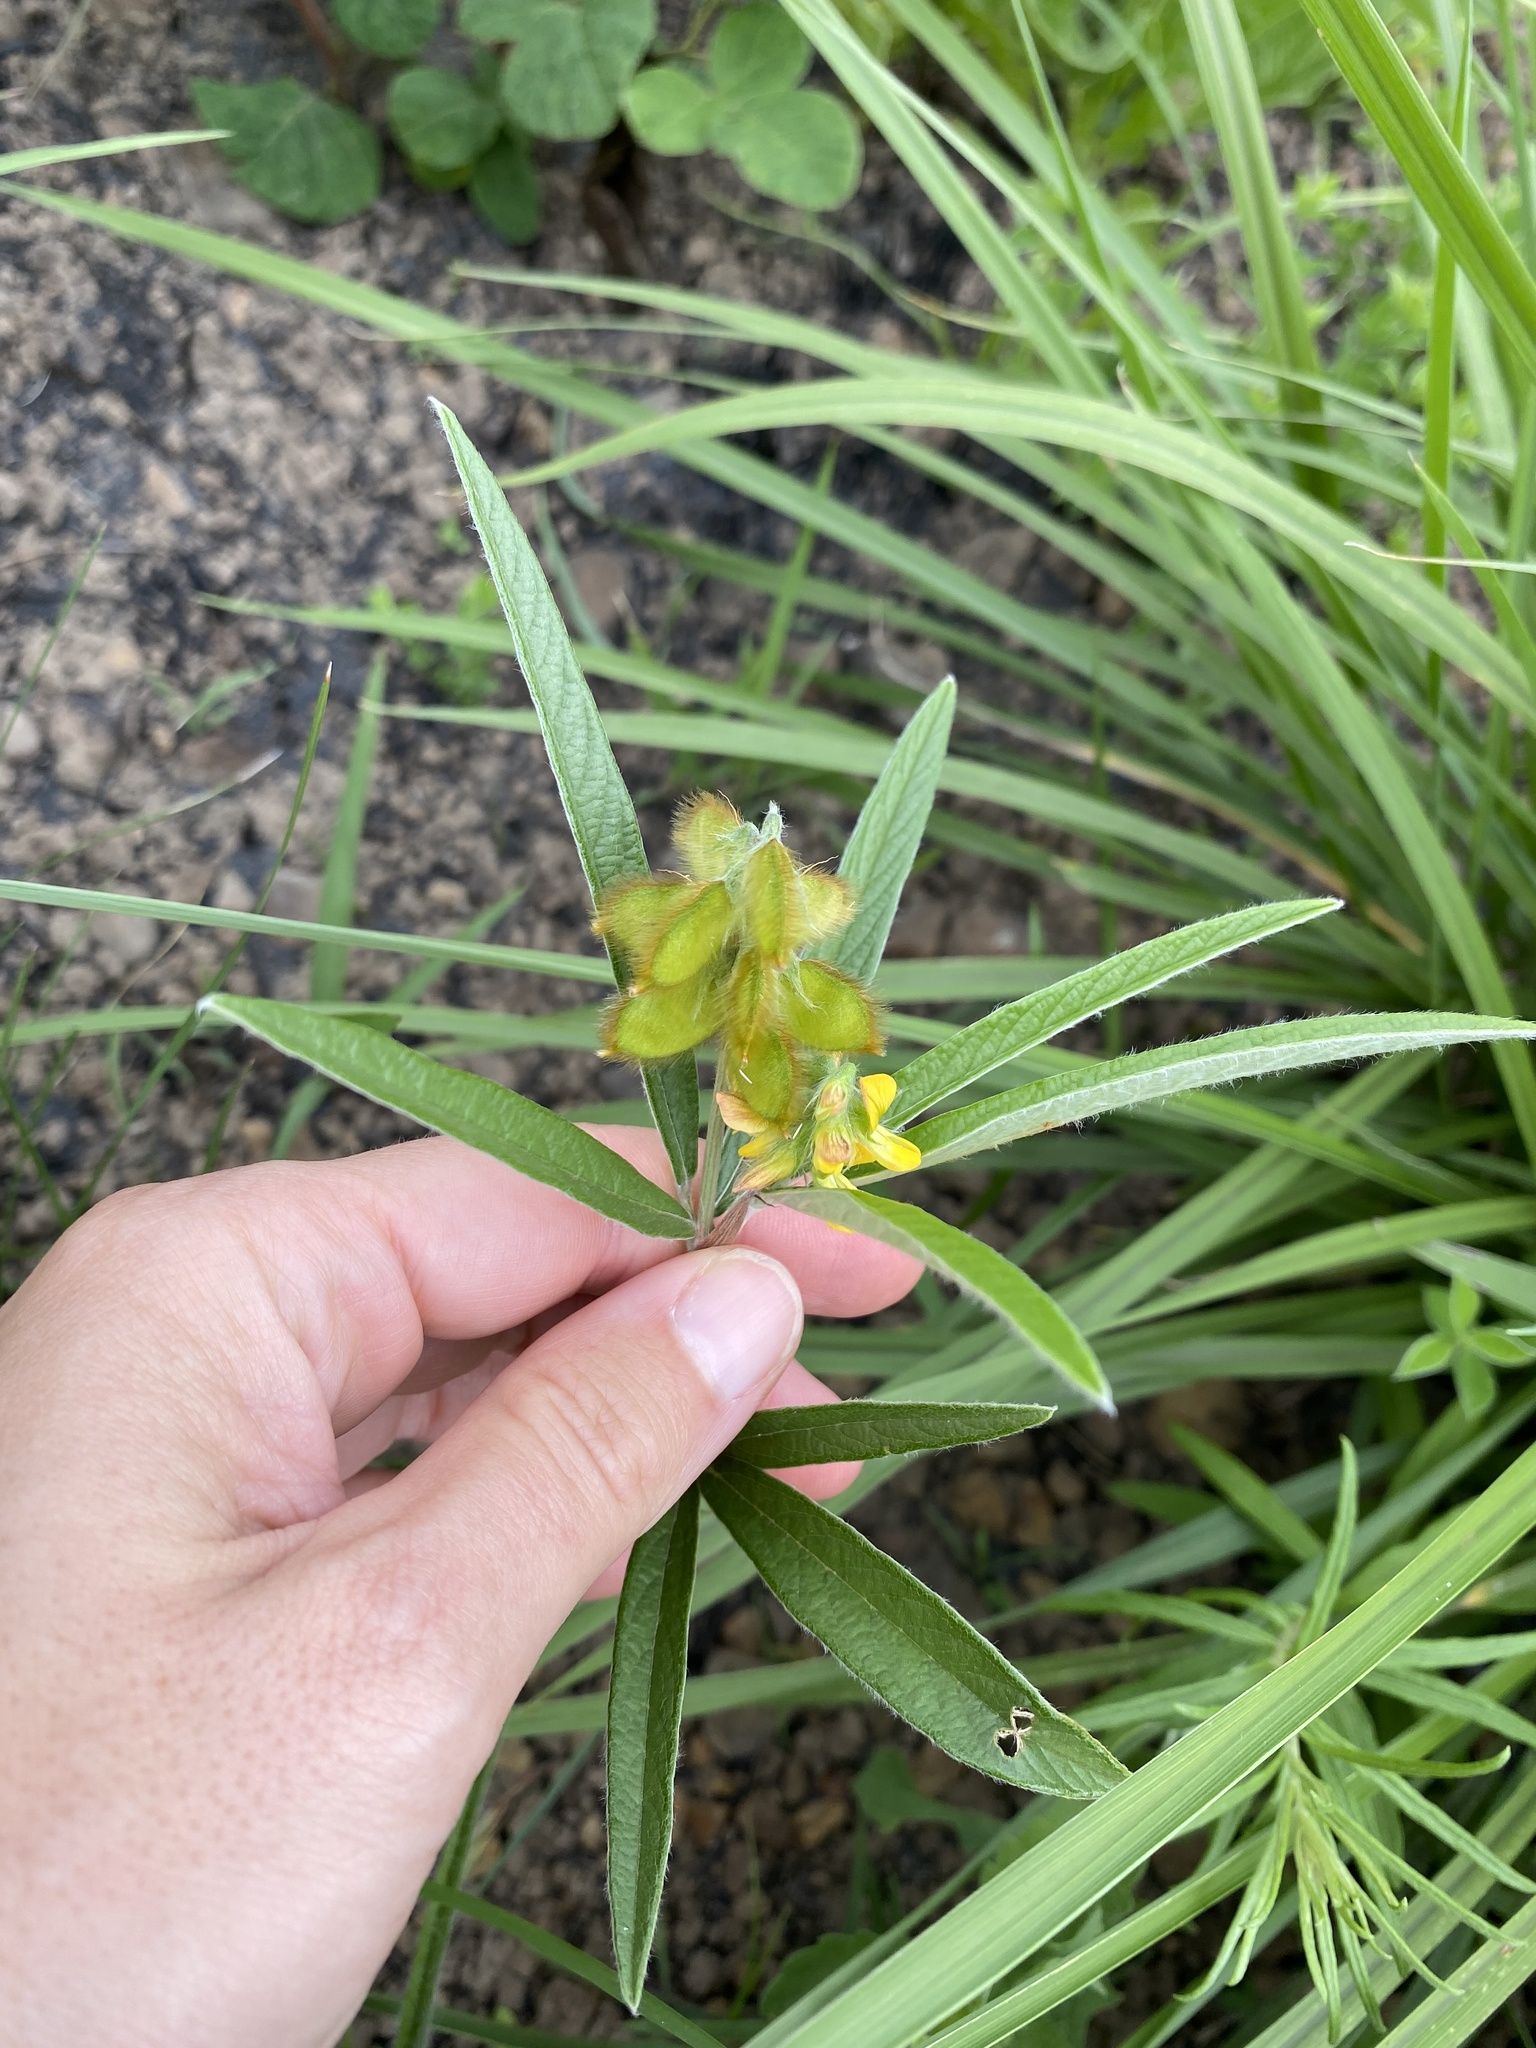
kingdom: Plantae
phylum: Tracheophyta
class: Magnoliopsida
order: Fabales
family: Fabaceae
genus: Eriosema
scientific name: Eriosema salignum
